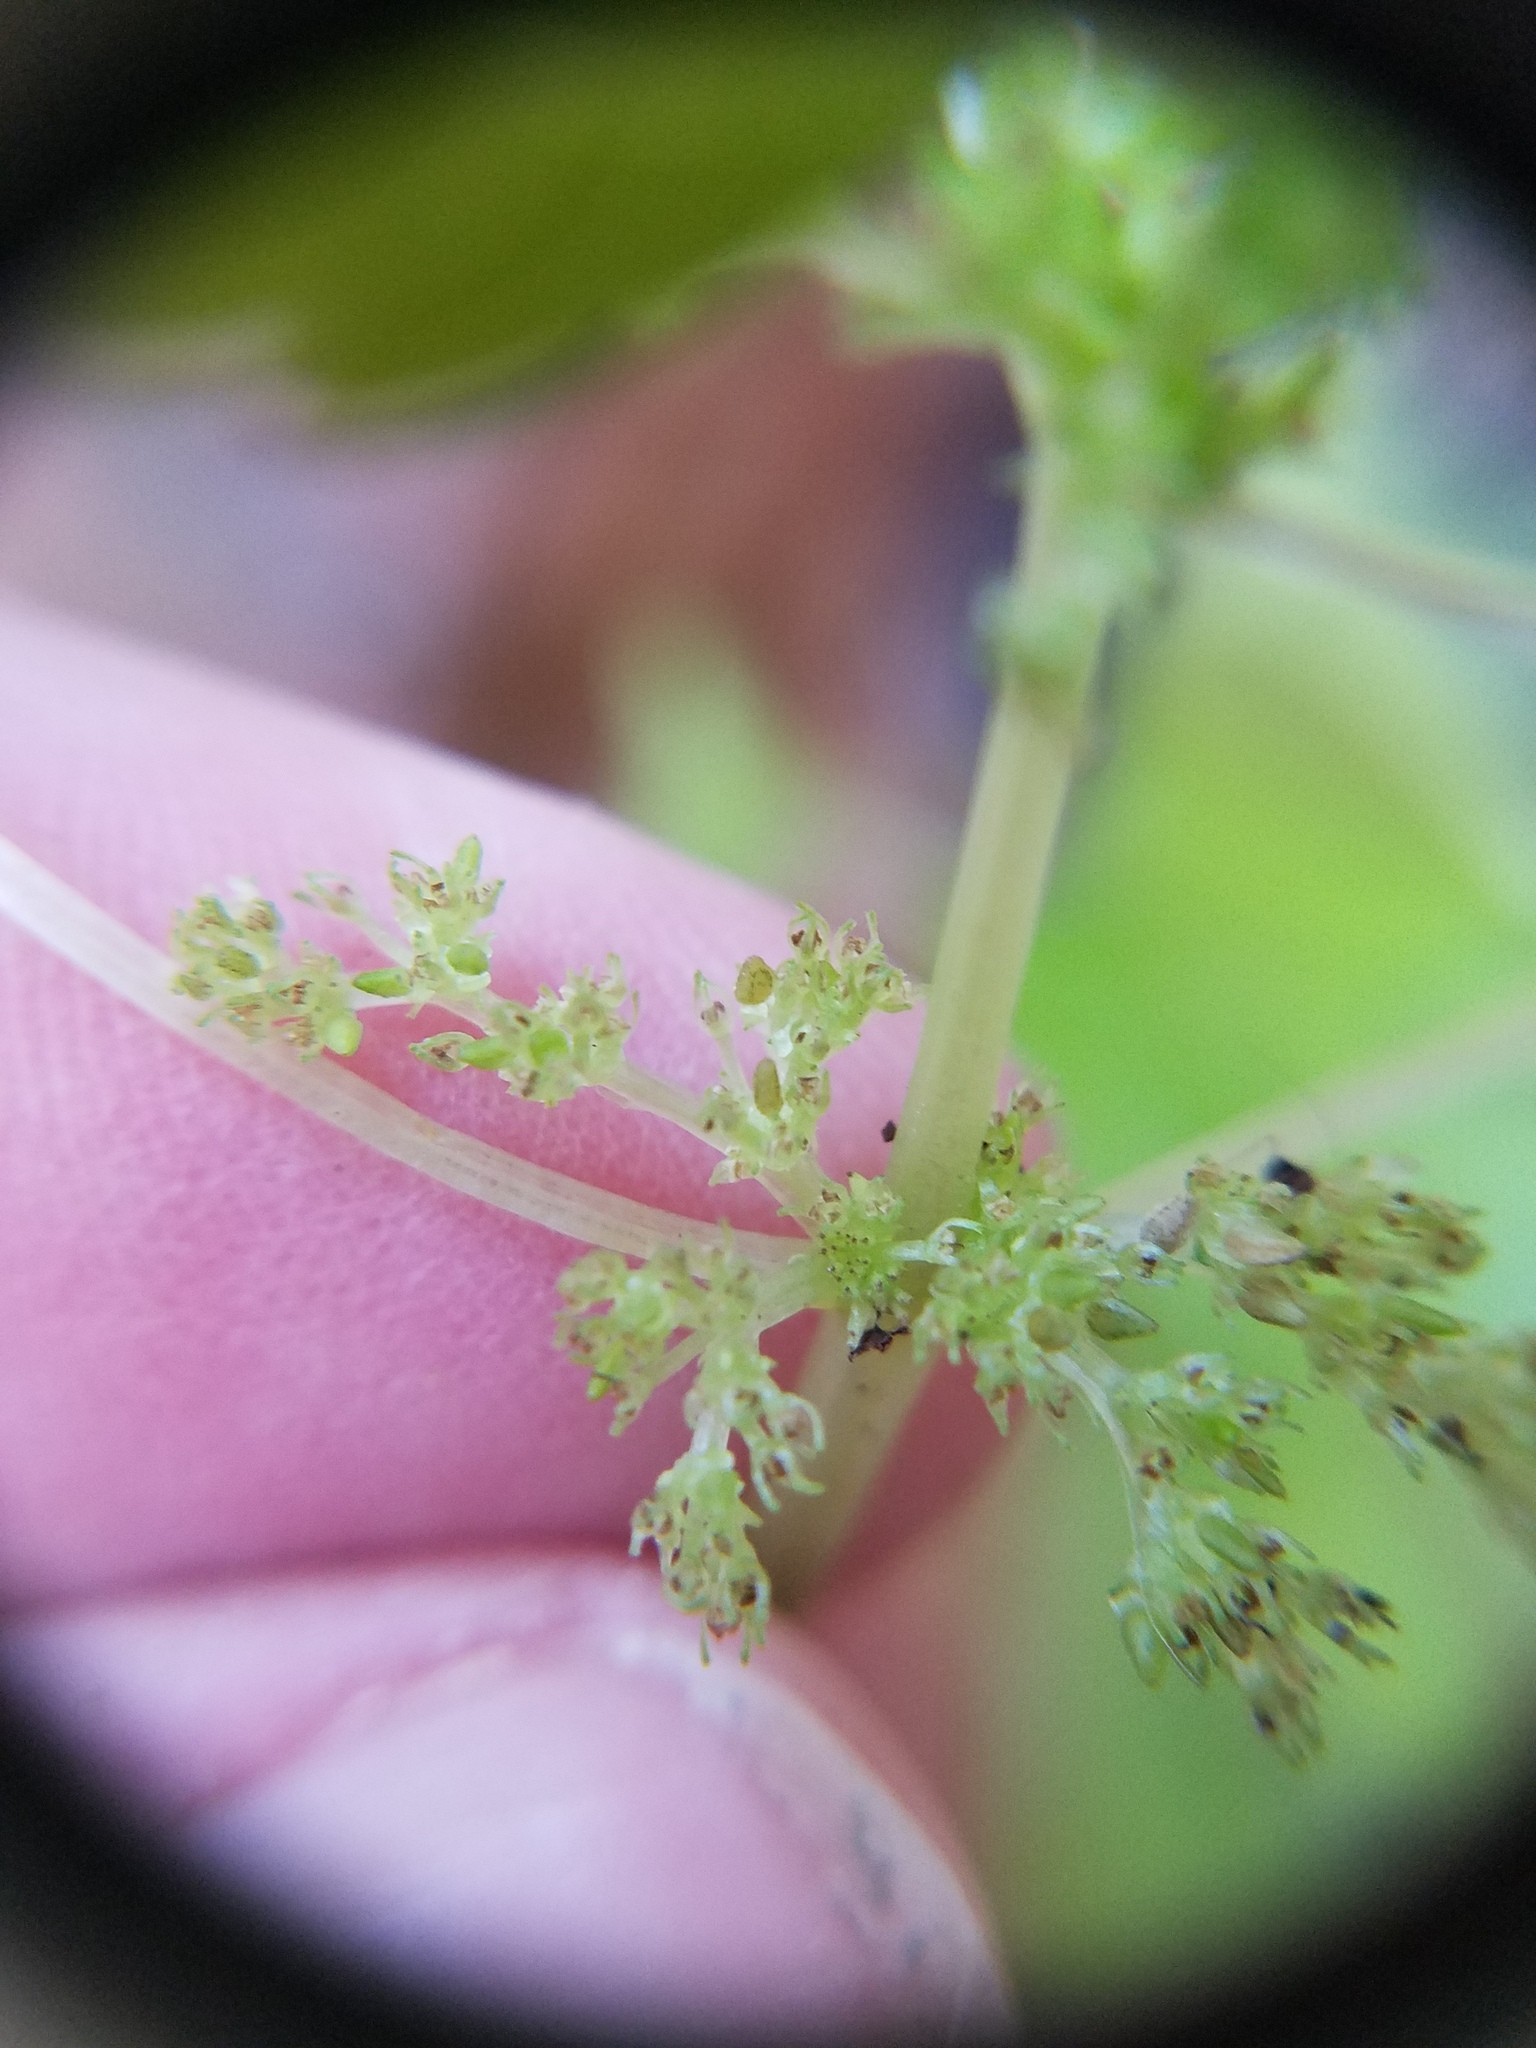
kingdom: Plantae
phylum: Tracheophyta
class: Magnoliopsida
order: Rosales
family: Urticaceae
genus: Pilea
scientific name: Pilea pumila
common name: Clearweed
